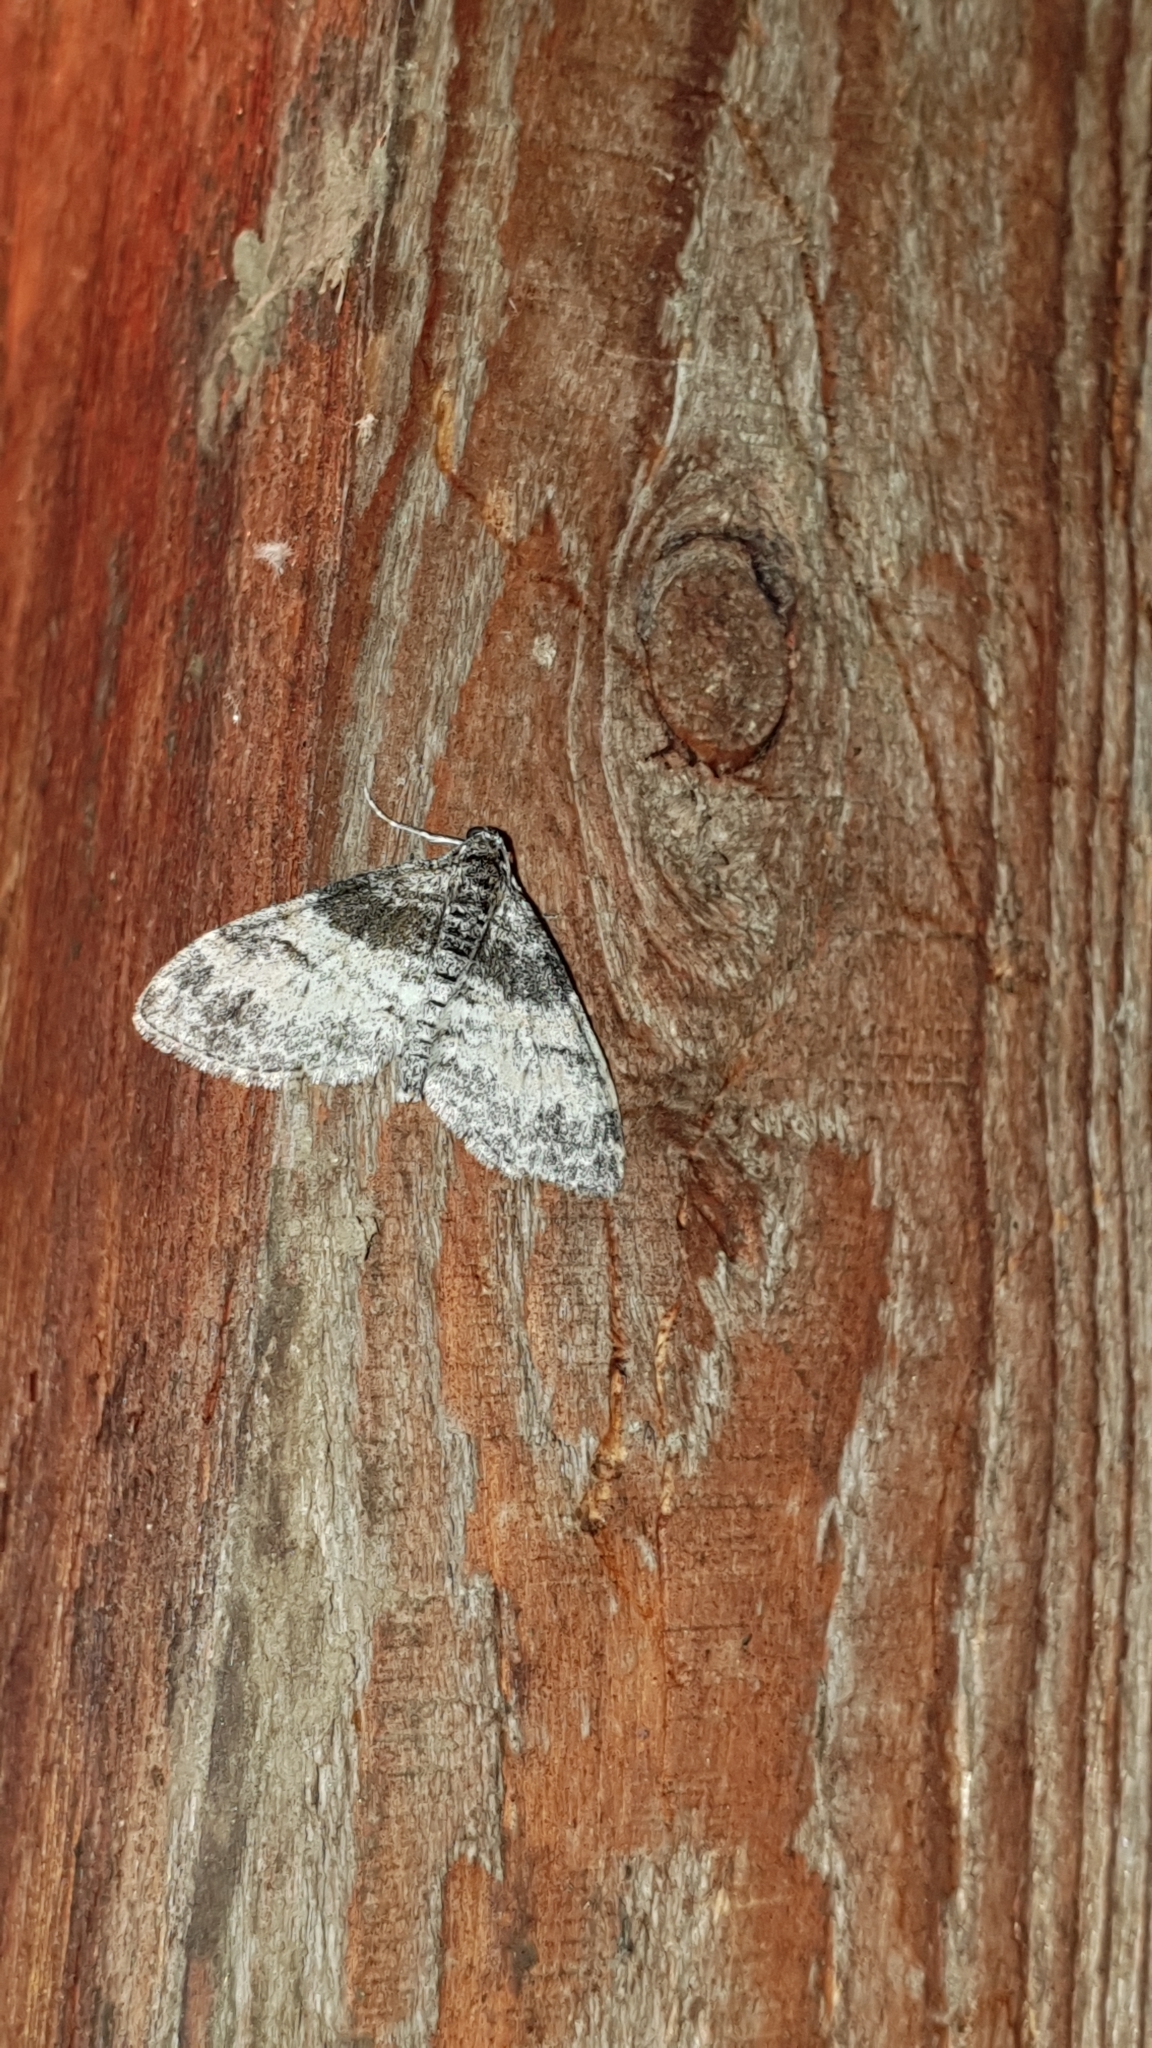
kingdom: Animalia
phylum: Arthropoda
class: Insecta
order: Lepidoptera
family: Geometridae
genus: Lobophora
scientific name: Lobophora halterata
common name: Seraphim
